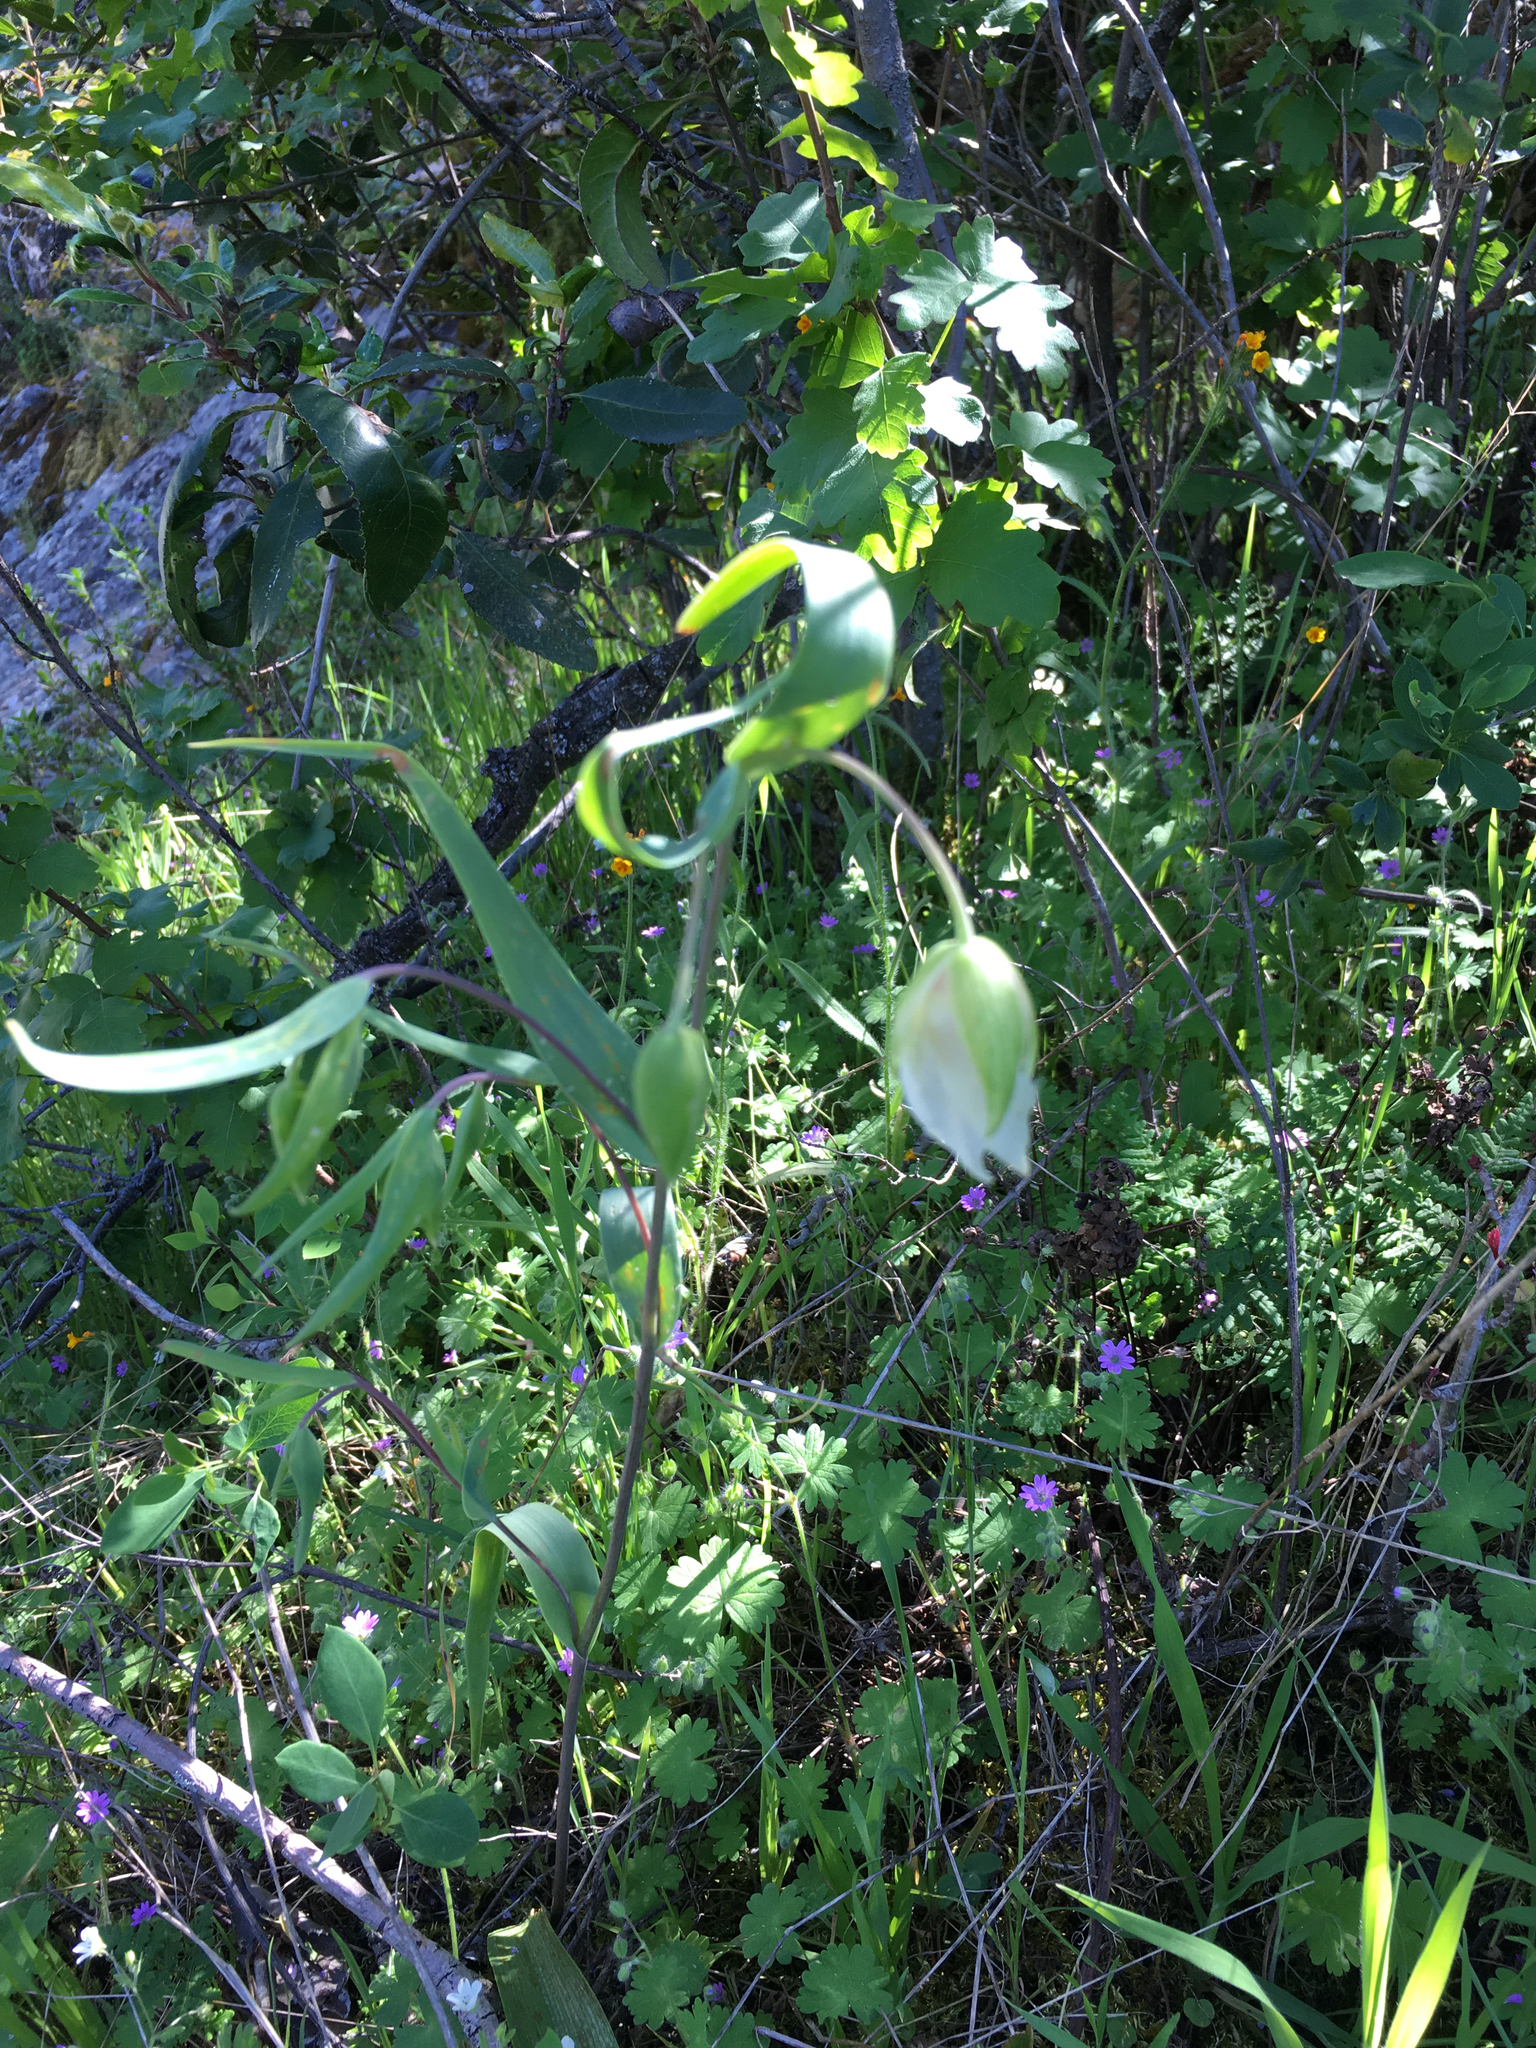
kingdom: Plantae
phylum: Tracheophyta
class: Liliopsida
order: Liliales
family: Liliaceae
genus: Calochortus
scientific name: Calochortus albus
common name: Fairy-lantern
